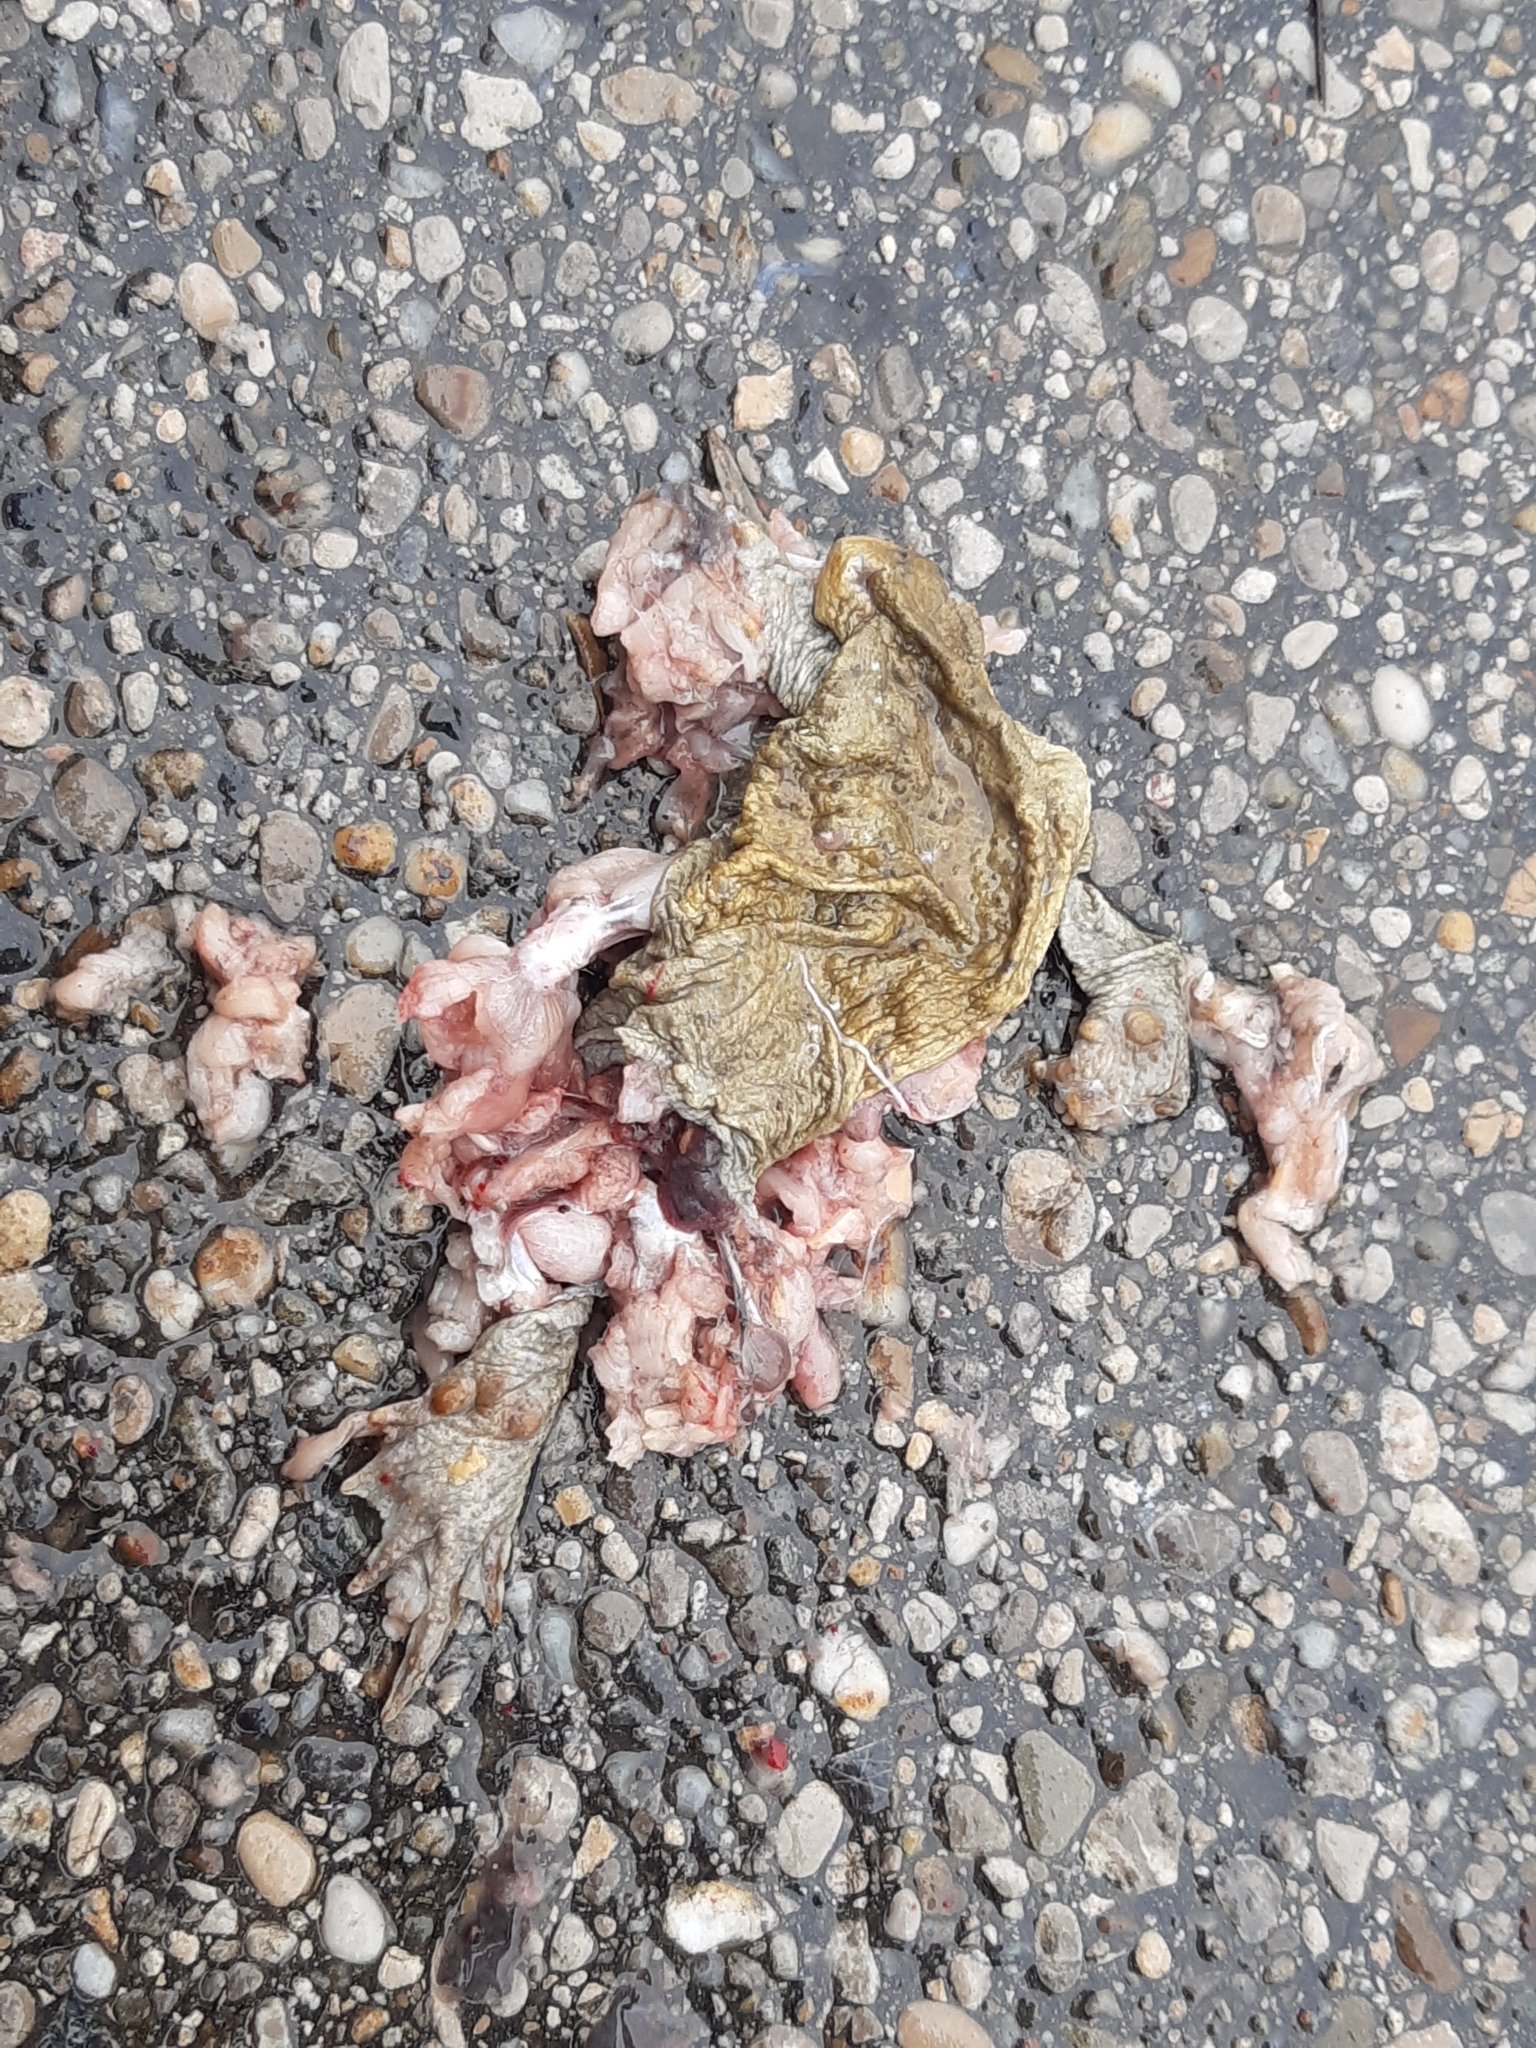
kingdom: Animalia
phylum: Chordata
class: Amphibia
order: Anura
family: Bufonidae
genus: Bufo
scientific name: Bufo bufo
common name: Common toad
